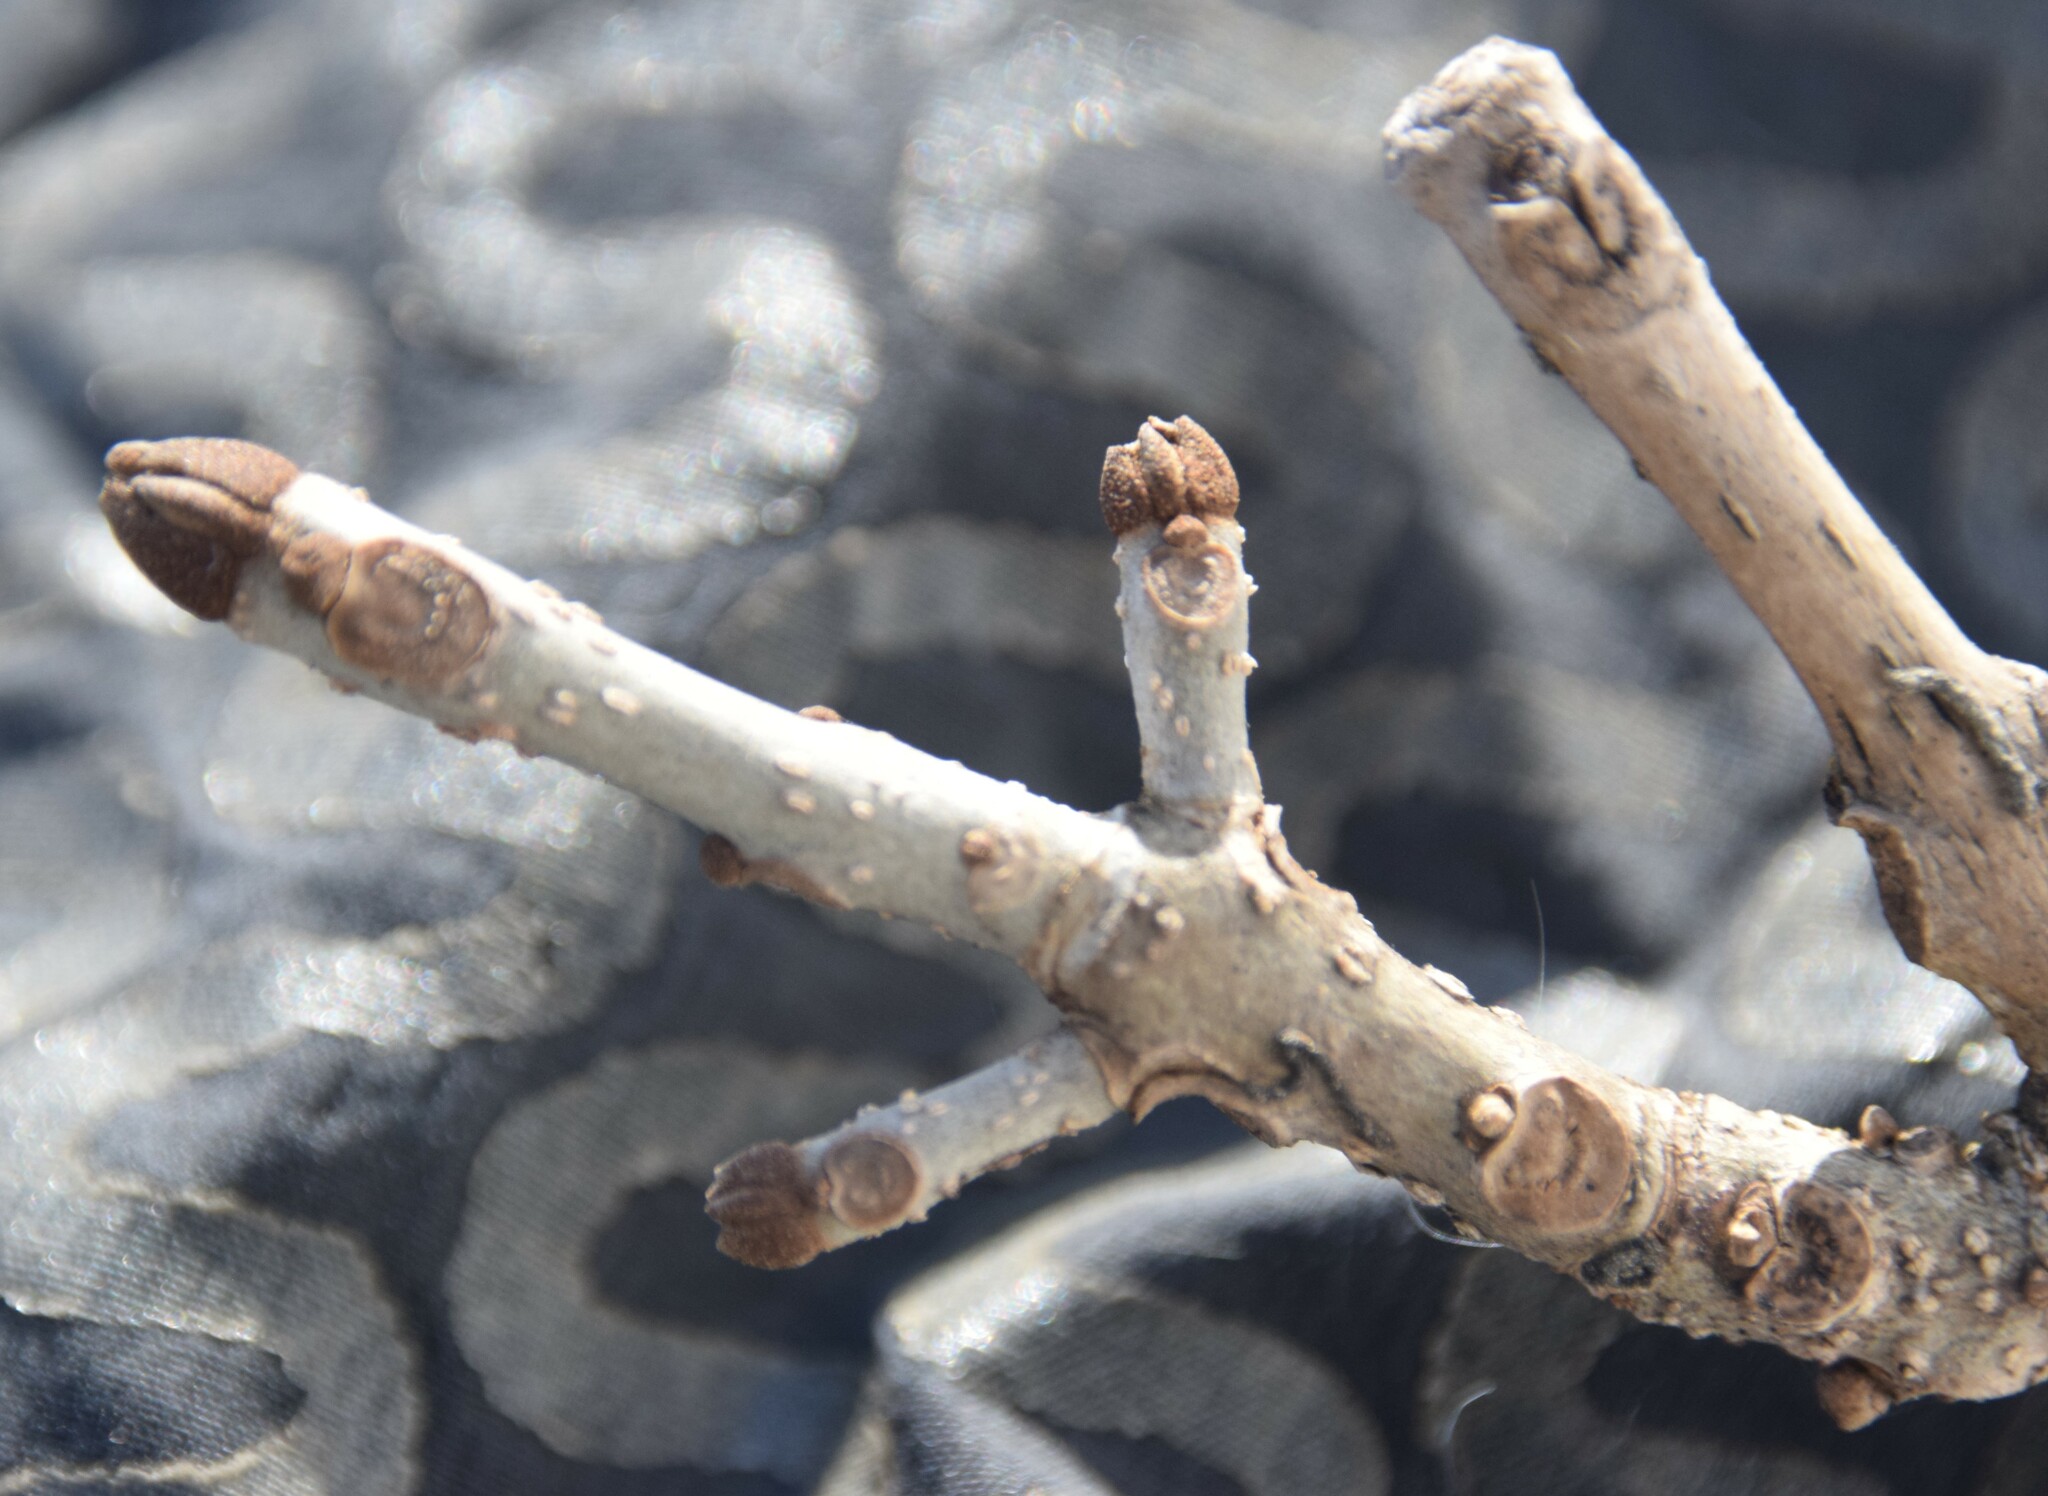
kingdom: Plantae
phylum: Tracheophyta
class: Magnoliopsida
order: Lamiales
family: Oleaceae
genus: Fraxinus
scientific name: Fraxinus nigra
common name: Black ash
